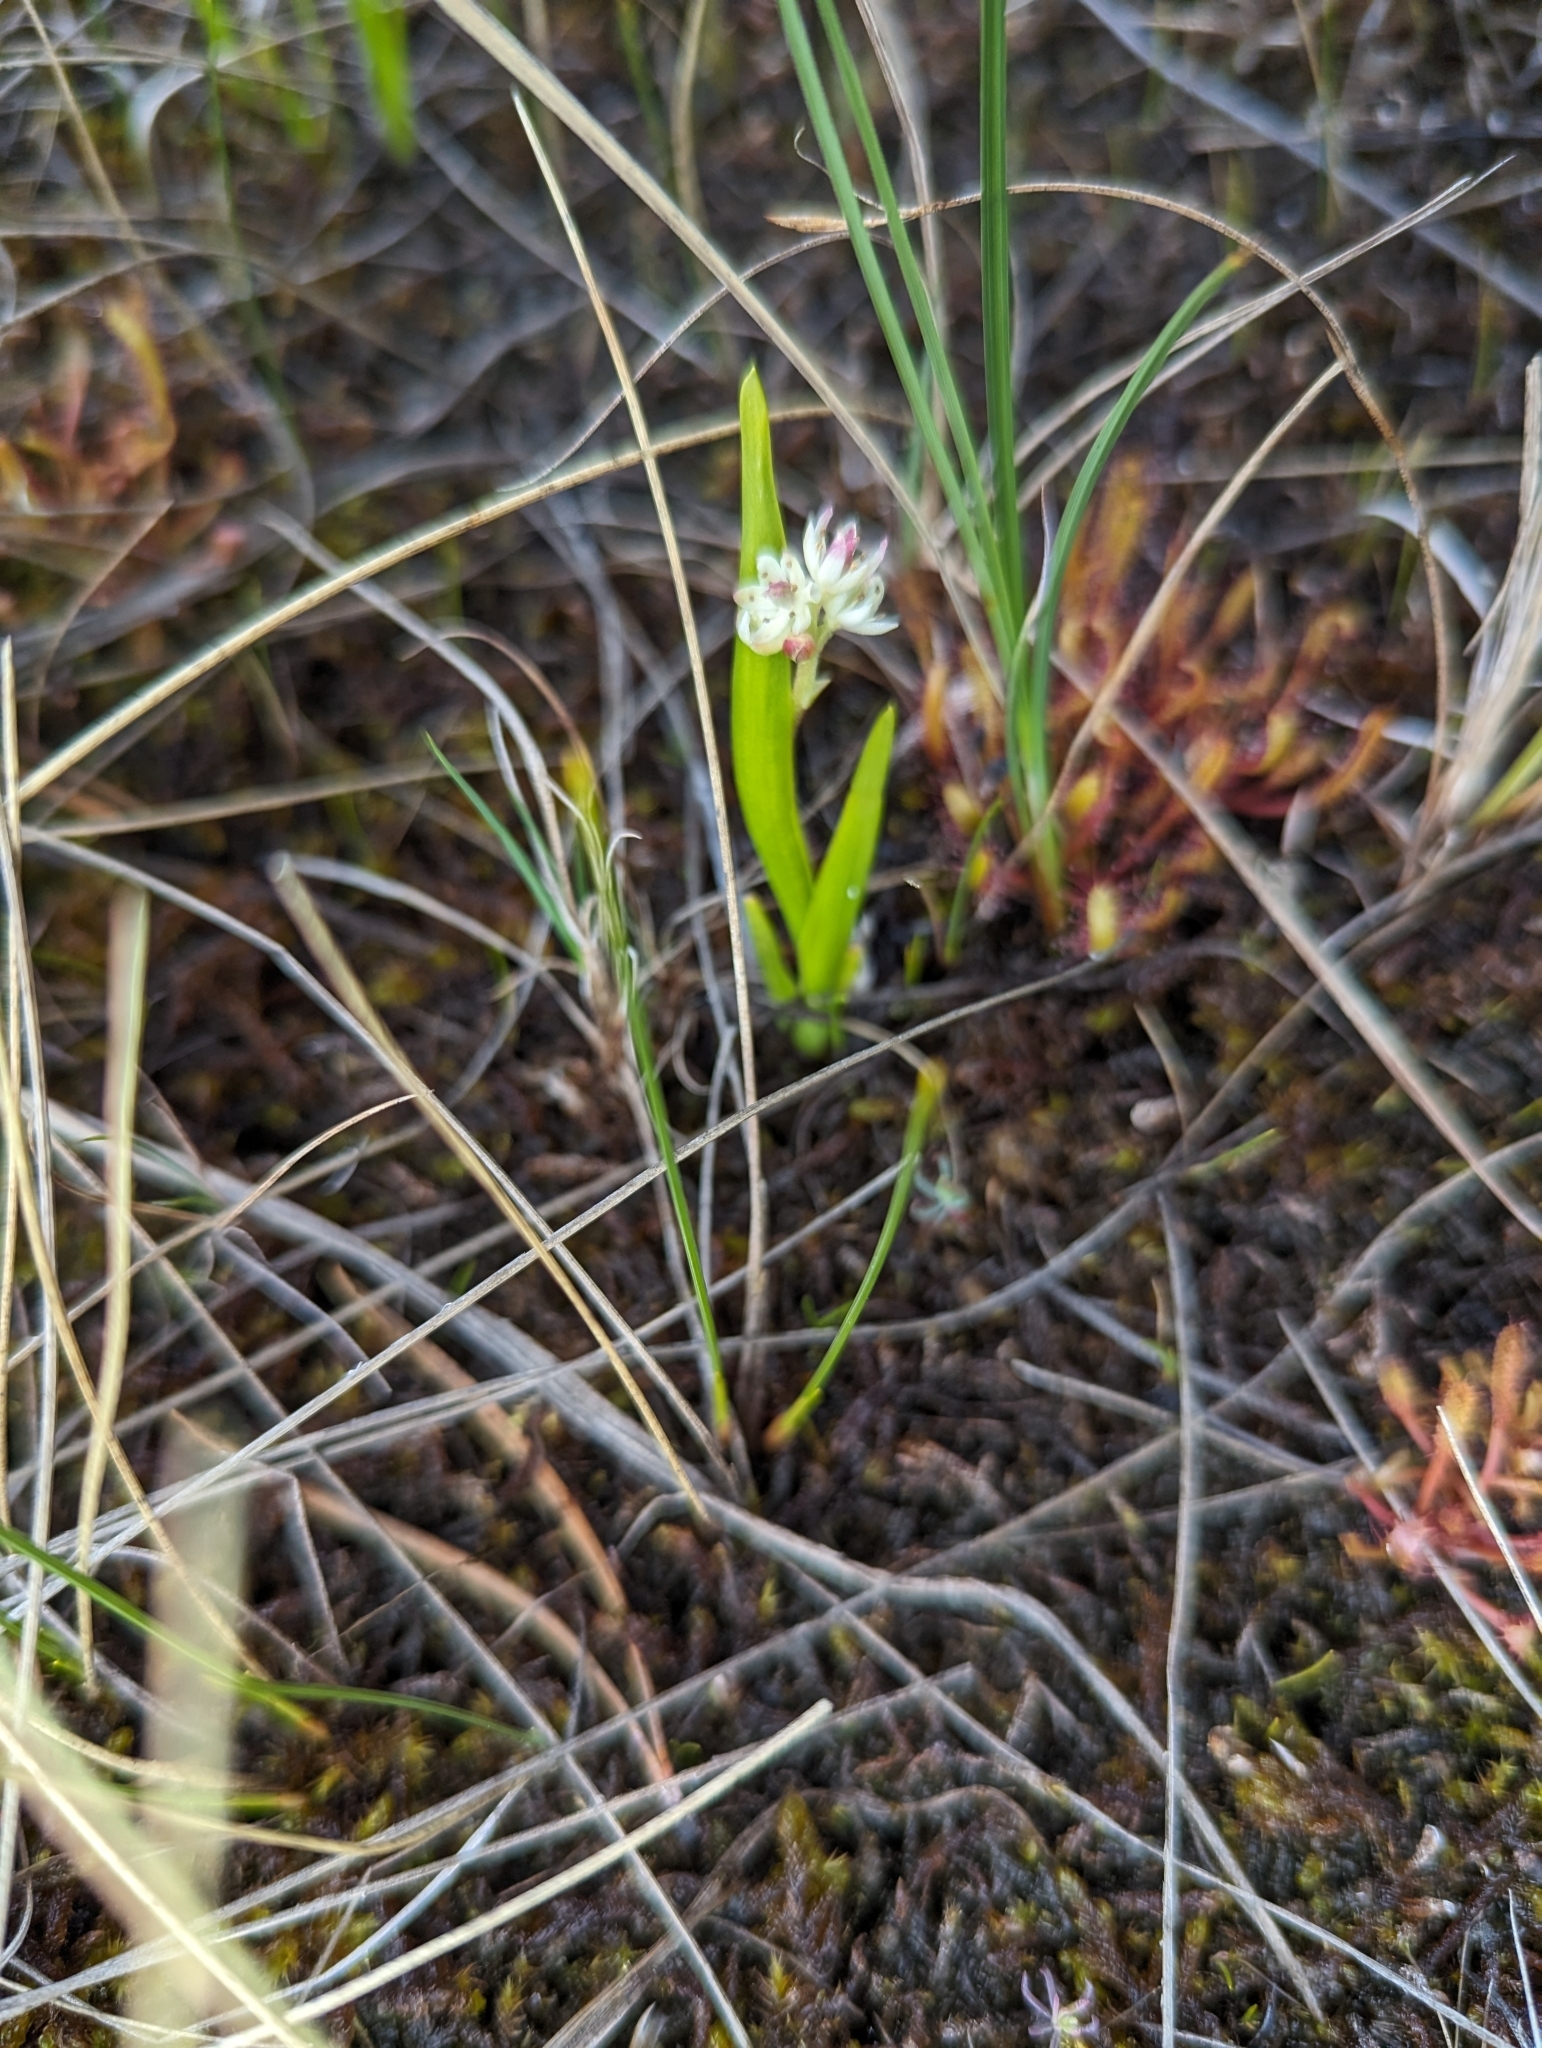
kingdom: Plantae
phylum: Tracheophyta
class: Liliopsida
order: Alismatales
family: Tofieldiaceae
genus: Triantha
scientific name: Triantha glutinosa
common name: Glutinous tofieldia
